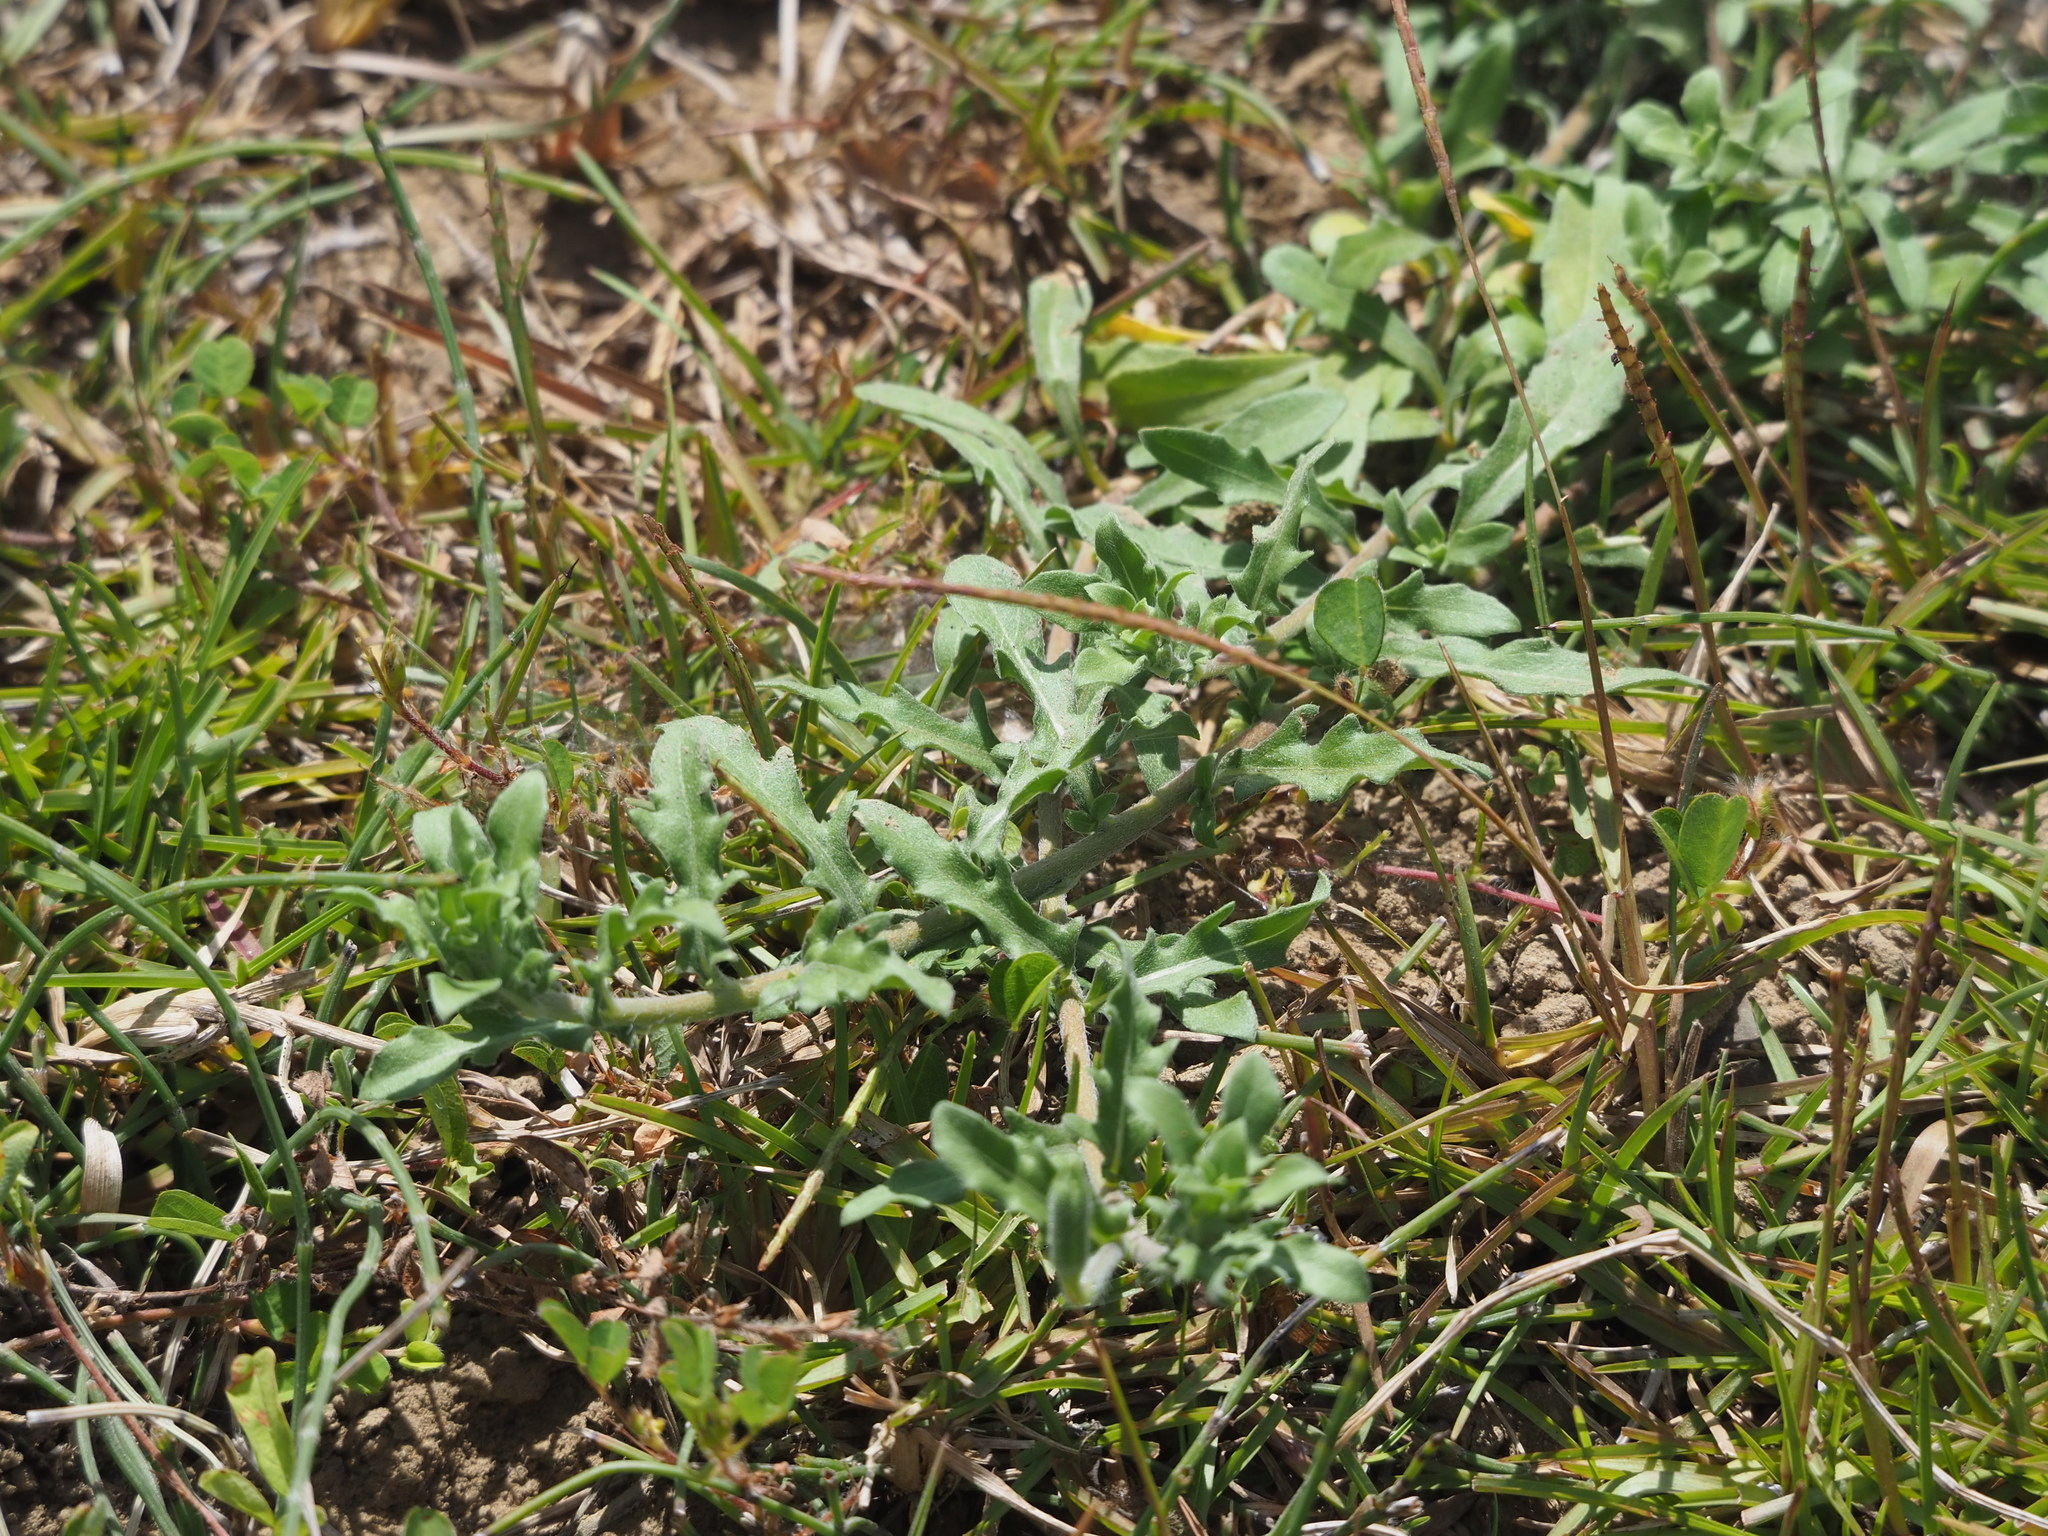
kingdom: Plantae
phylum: Tracheophyta
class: Magnoliopsida
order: Myrtales
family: Onagraceae
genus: Oenothera
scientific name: Oenothera laciniata
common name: Cut-leaved evening-primrose
